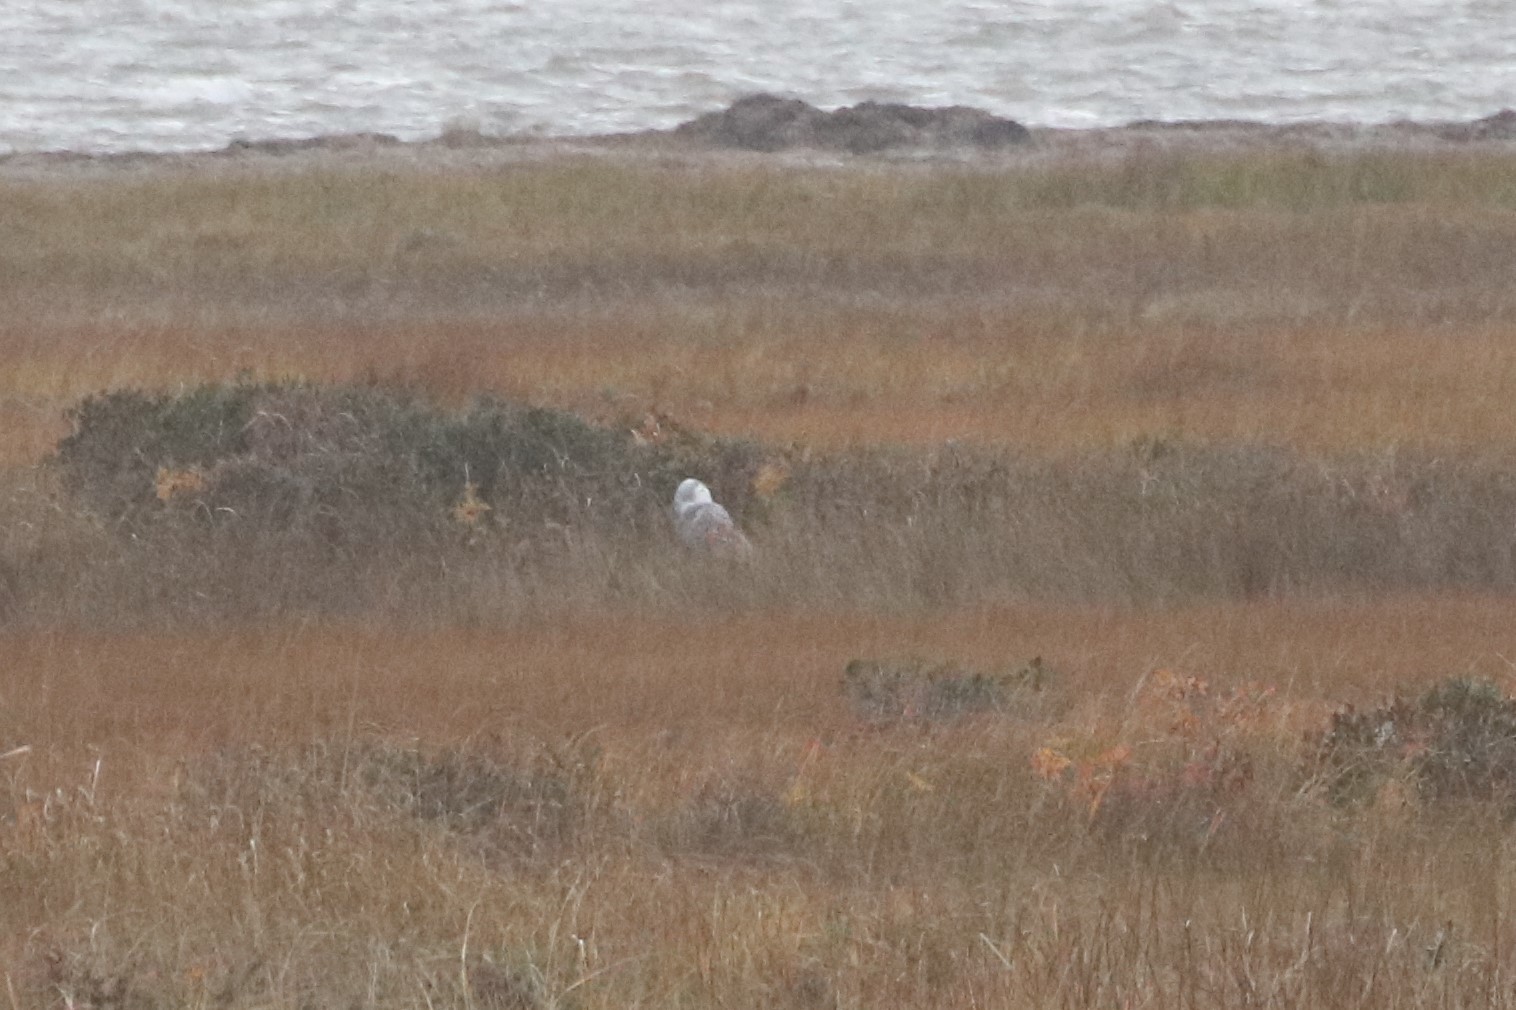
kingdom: Animalia
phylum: Chordata
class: Aves
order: Strigiformes
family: Strigidae
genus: Bubo
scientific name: Bubo scandiacus
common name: Snowy owl
